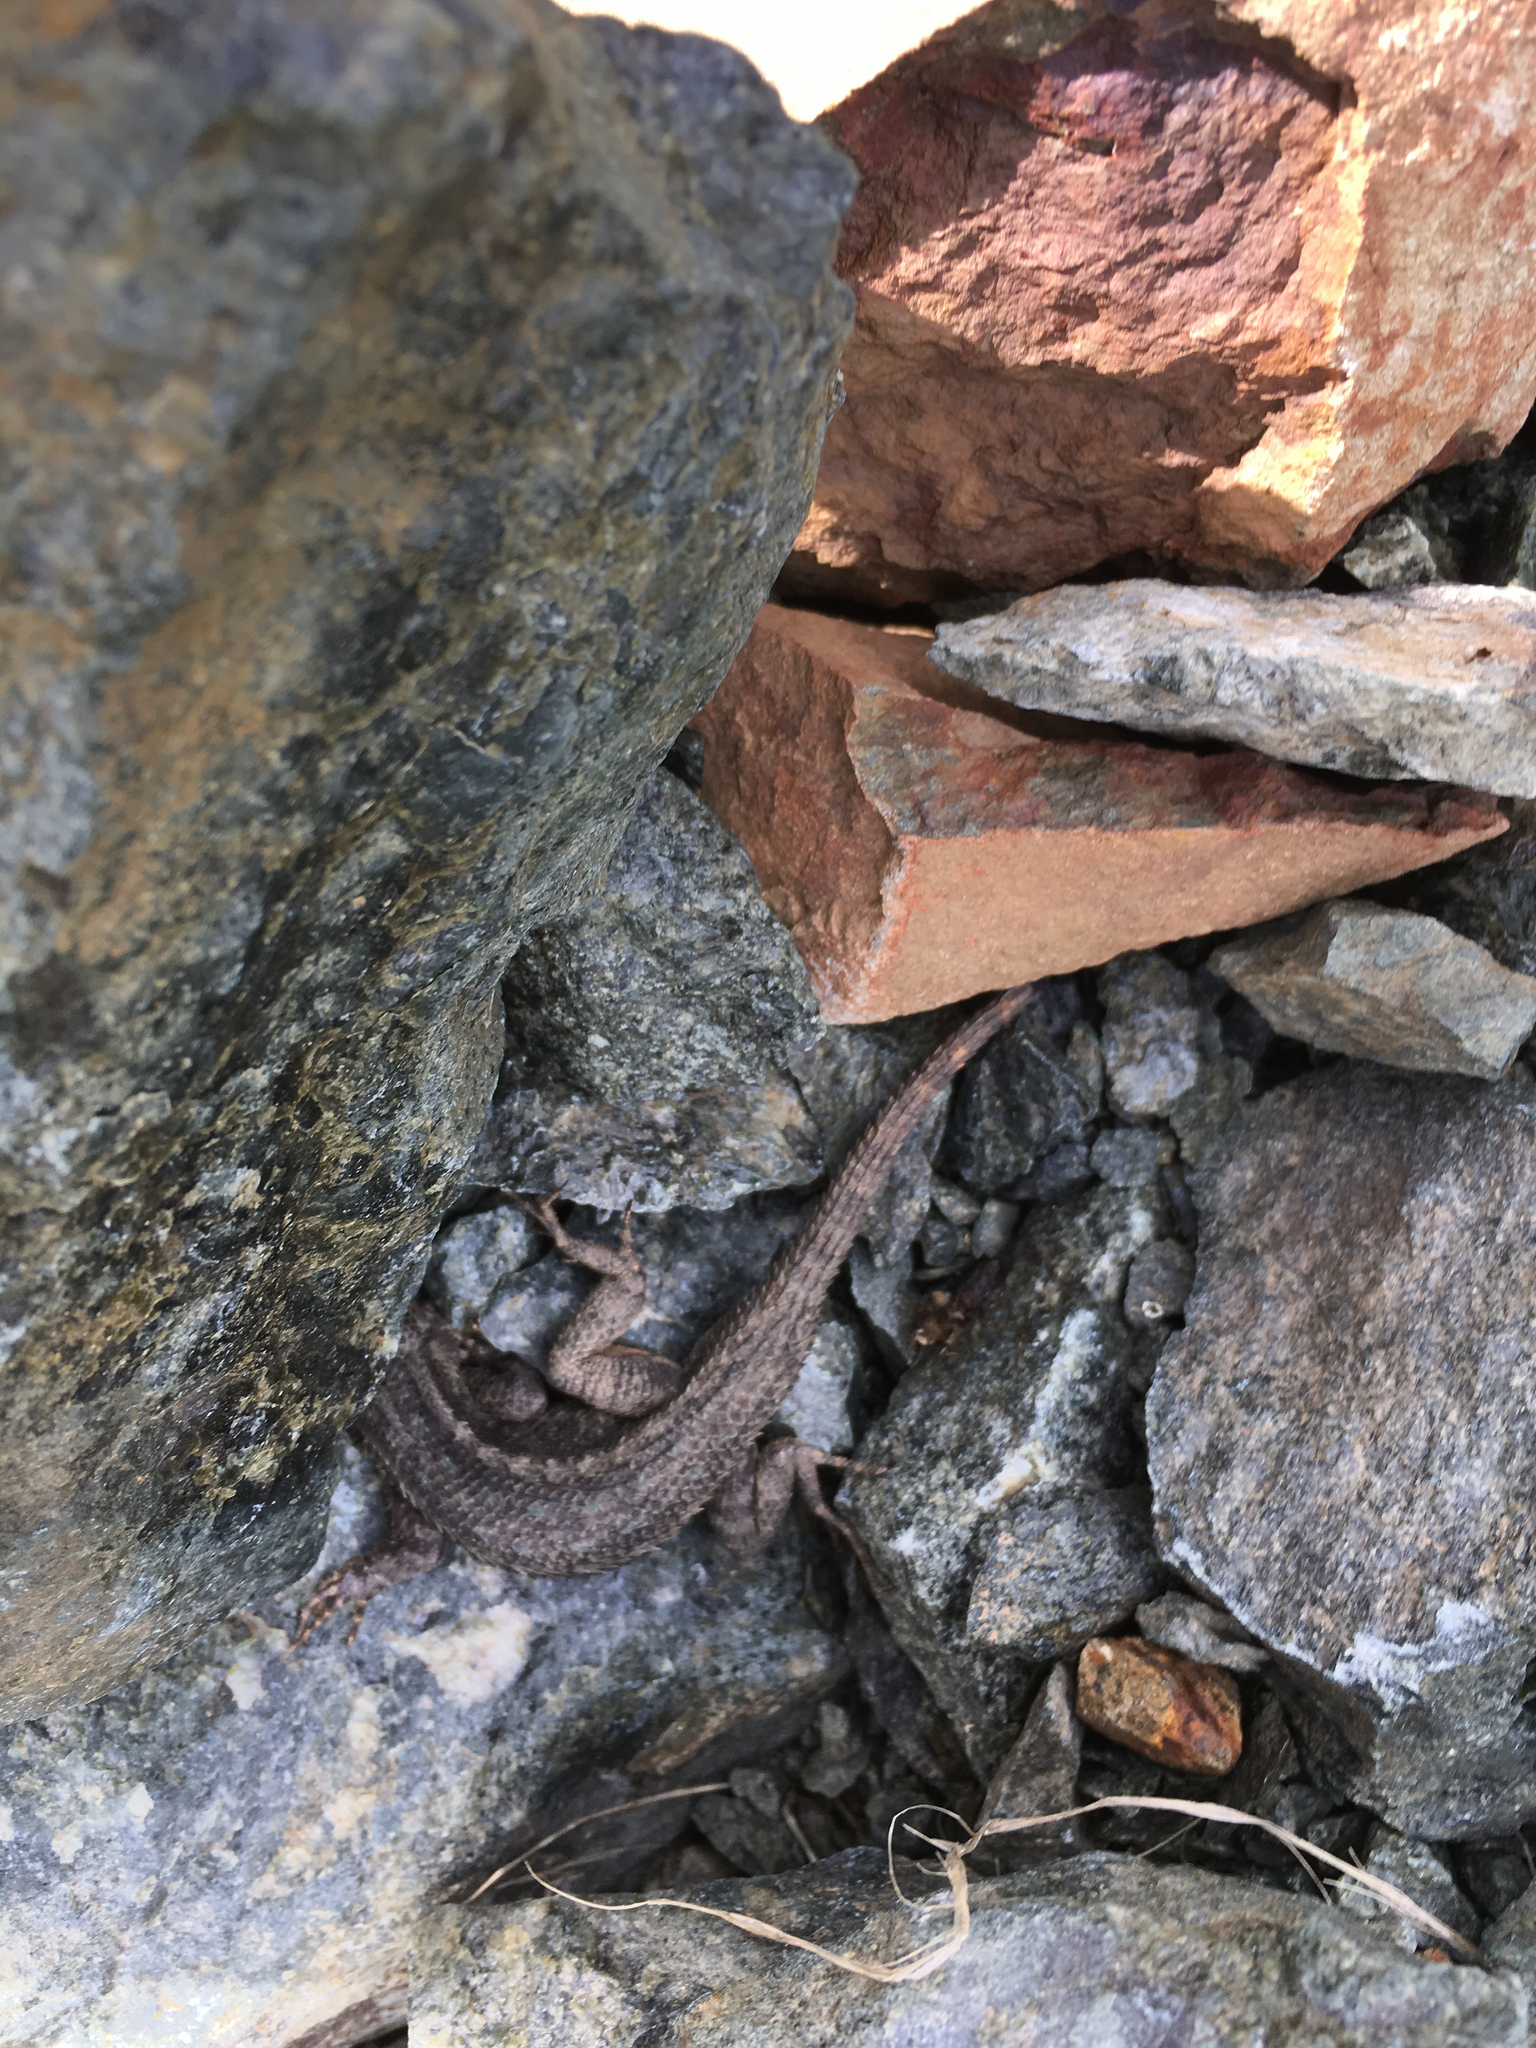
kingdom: Animalia
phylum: Chordata
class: Squamata
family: Phrynosomatidae
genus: Sceloporus
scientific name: Sceloporus occidentalis
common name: Western fence lizard
